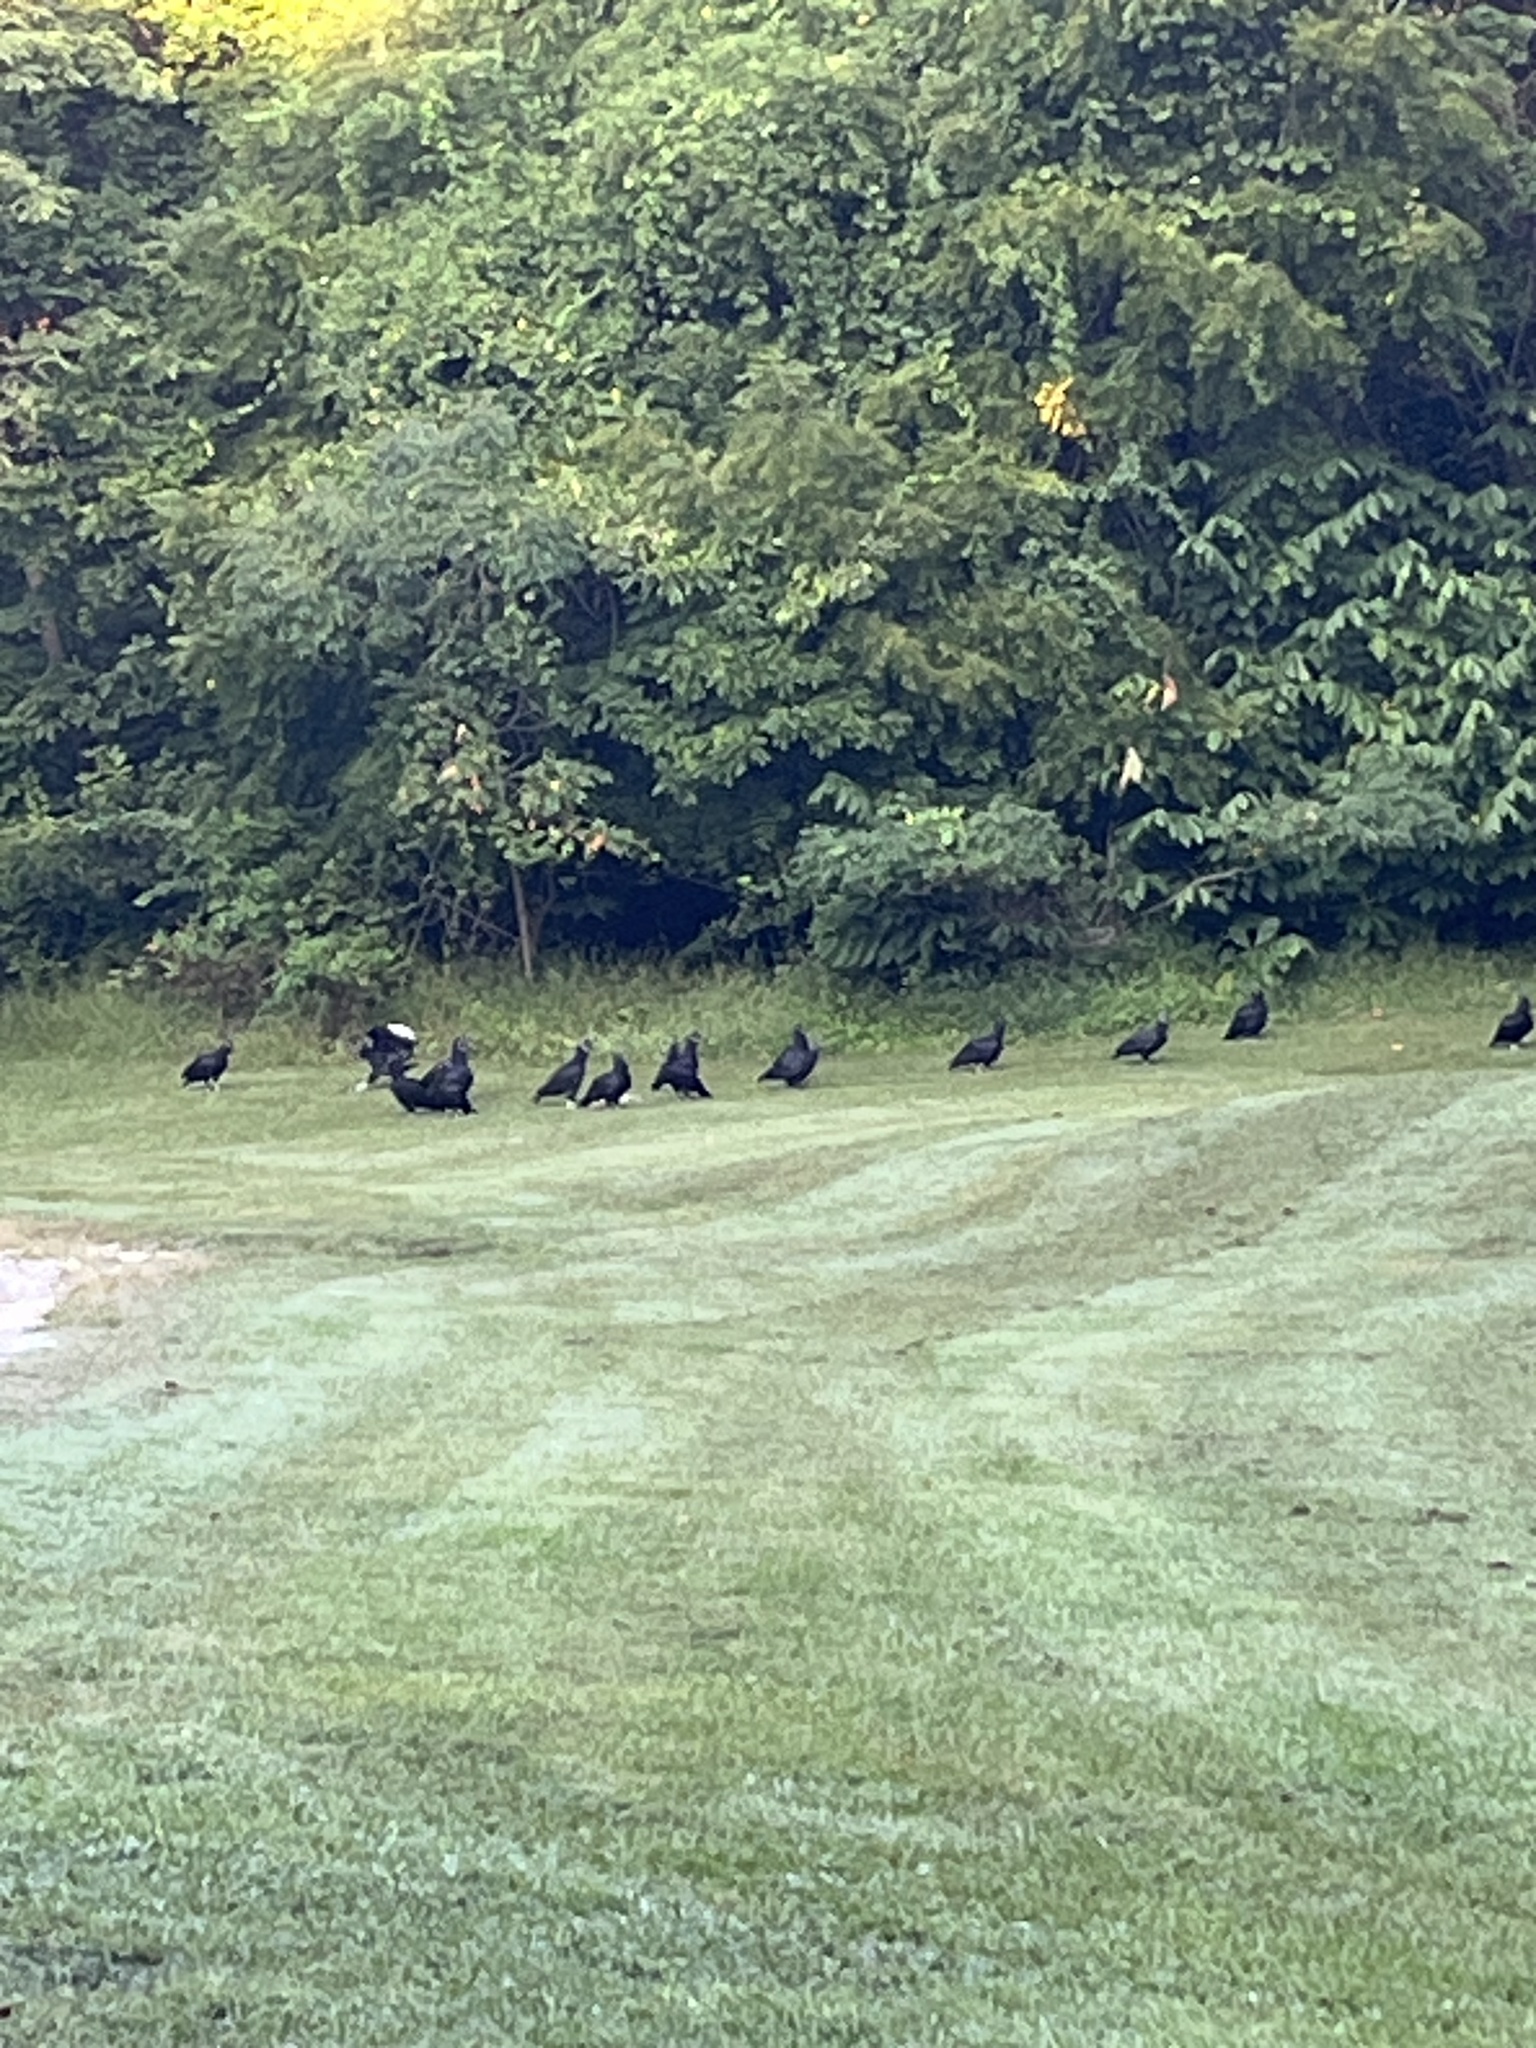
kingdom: Animalia
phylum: Chordata
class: Aves
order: Accipitriformes
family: Cathartidae
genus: Coragyps
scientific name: Coragyps atratus
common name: Black vulture
